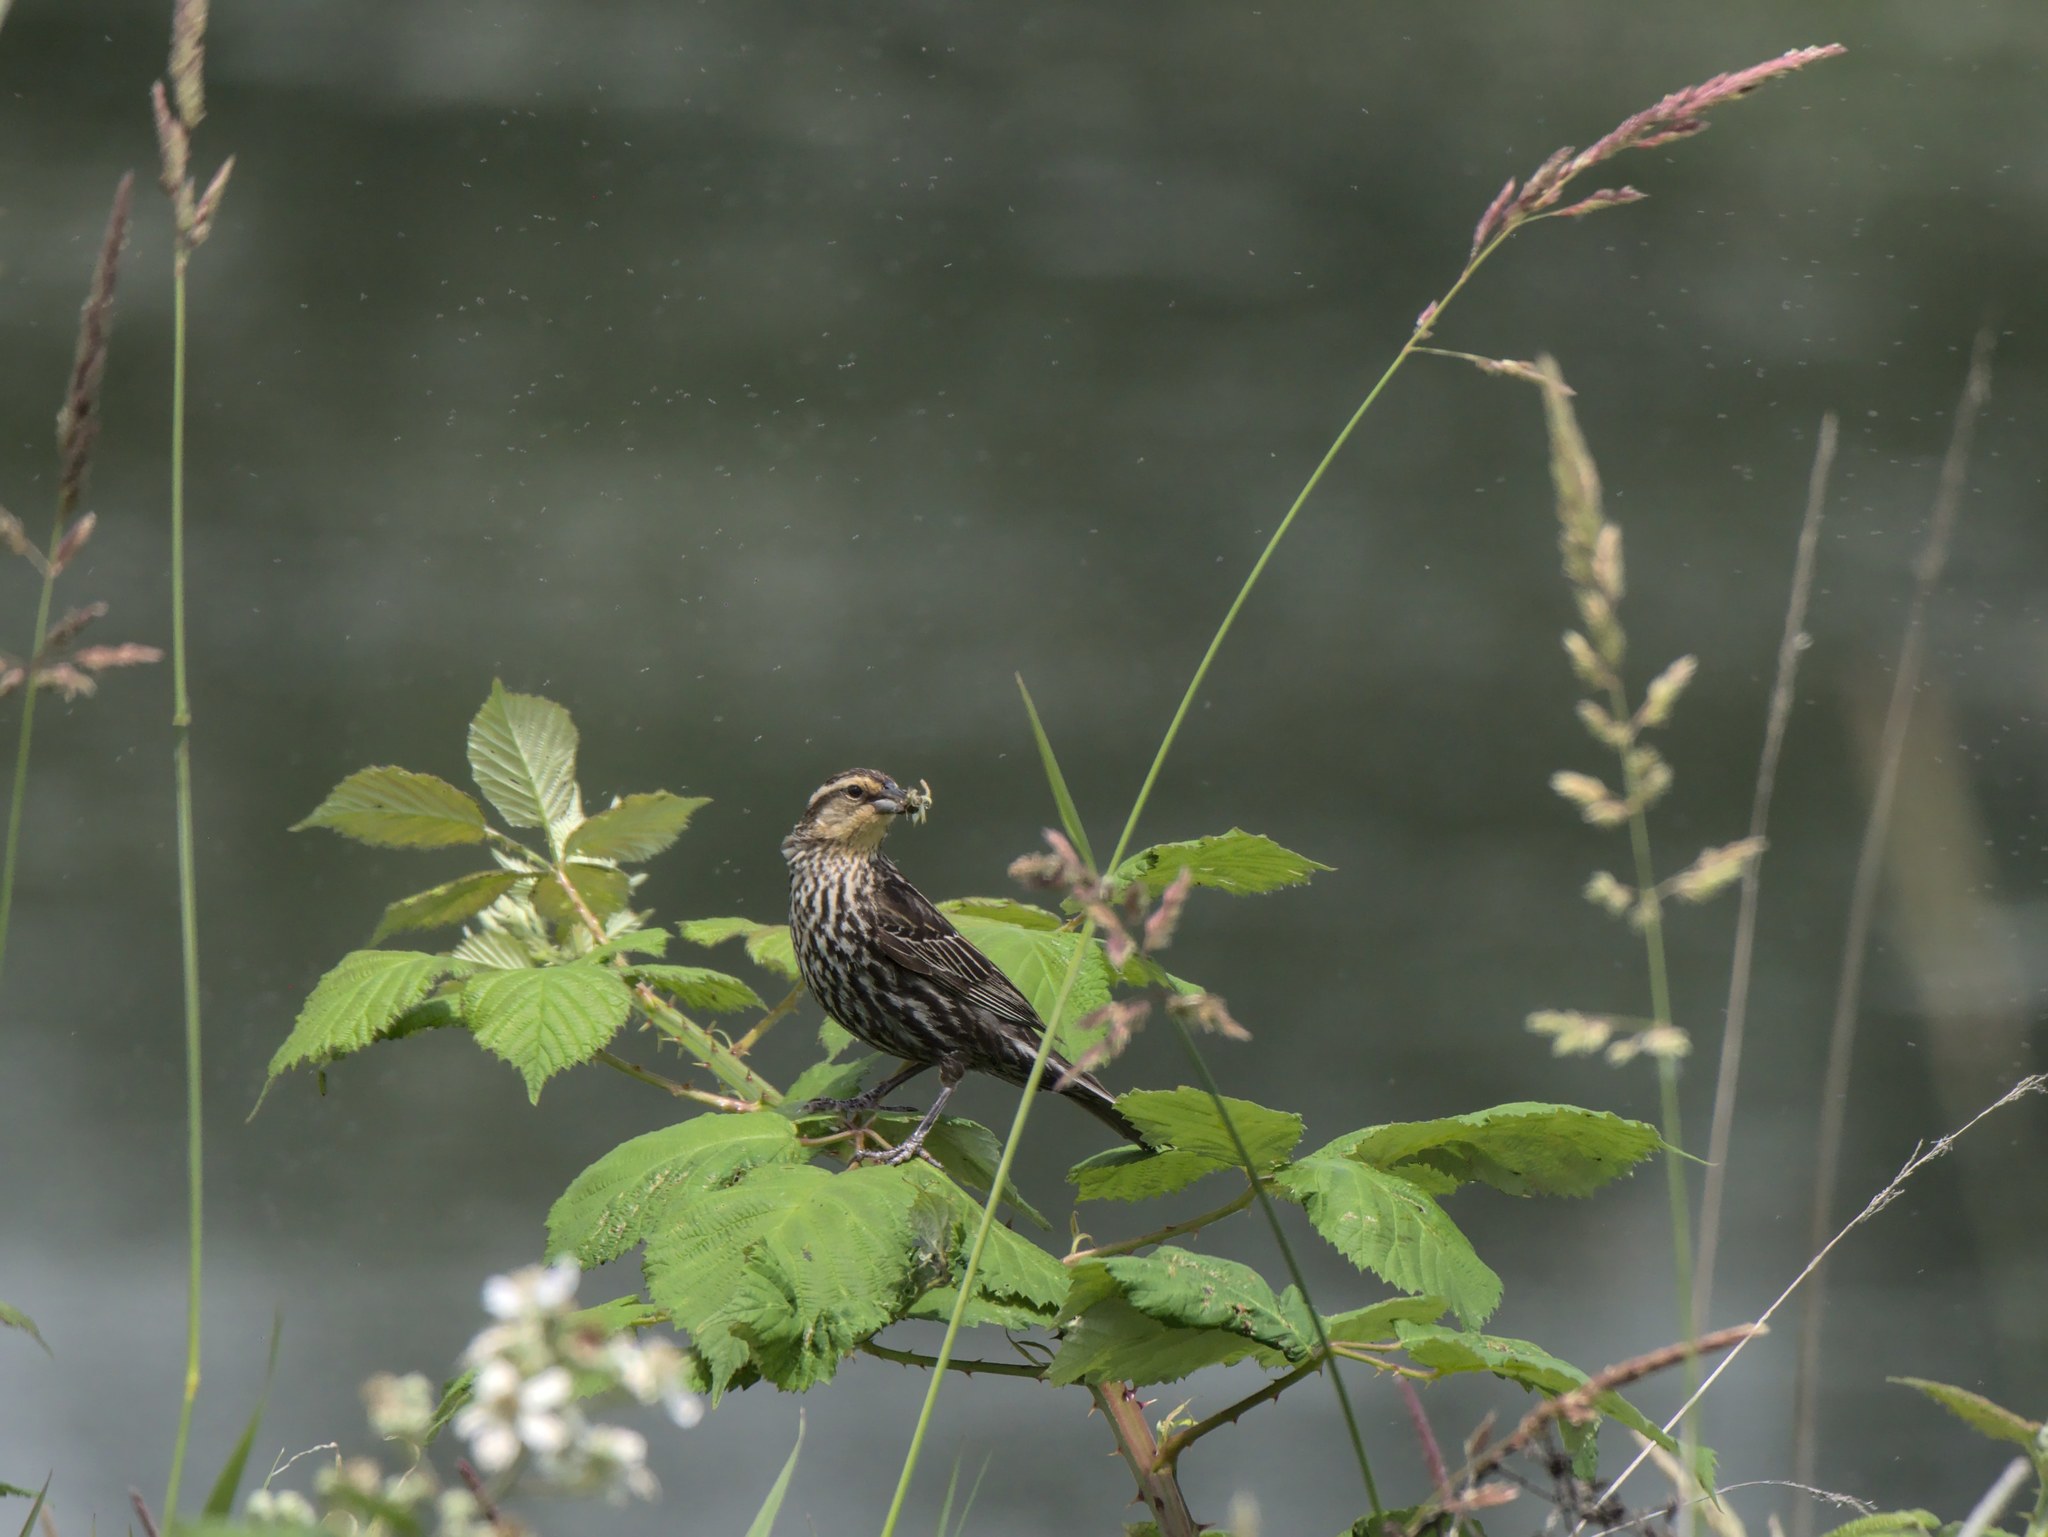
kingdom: Animalia
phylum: Chordata
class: Aves
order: Passeriformes
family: Icteridae
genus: Agelaius
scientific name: Agelaius phoeniceus
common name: Red-winged blackbird
